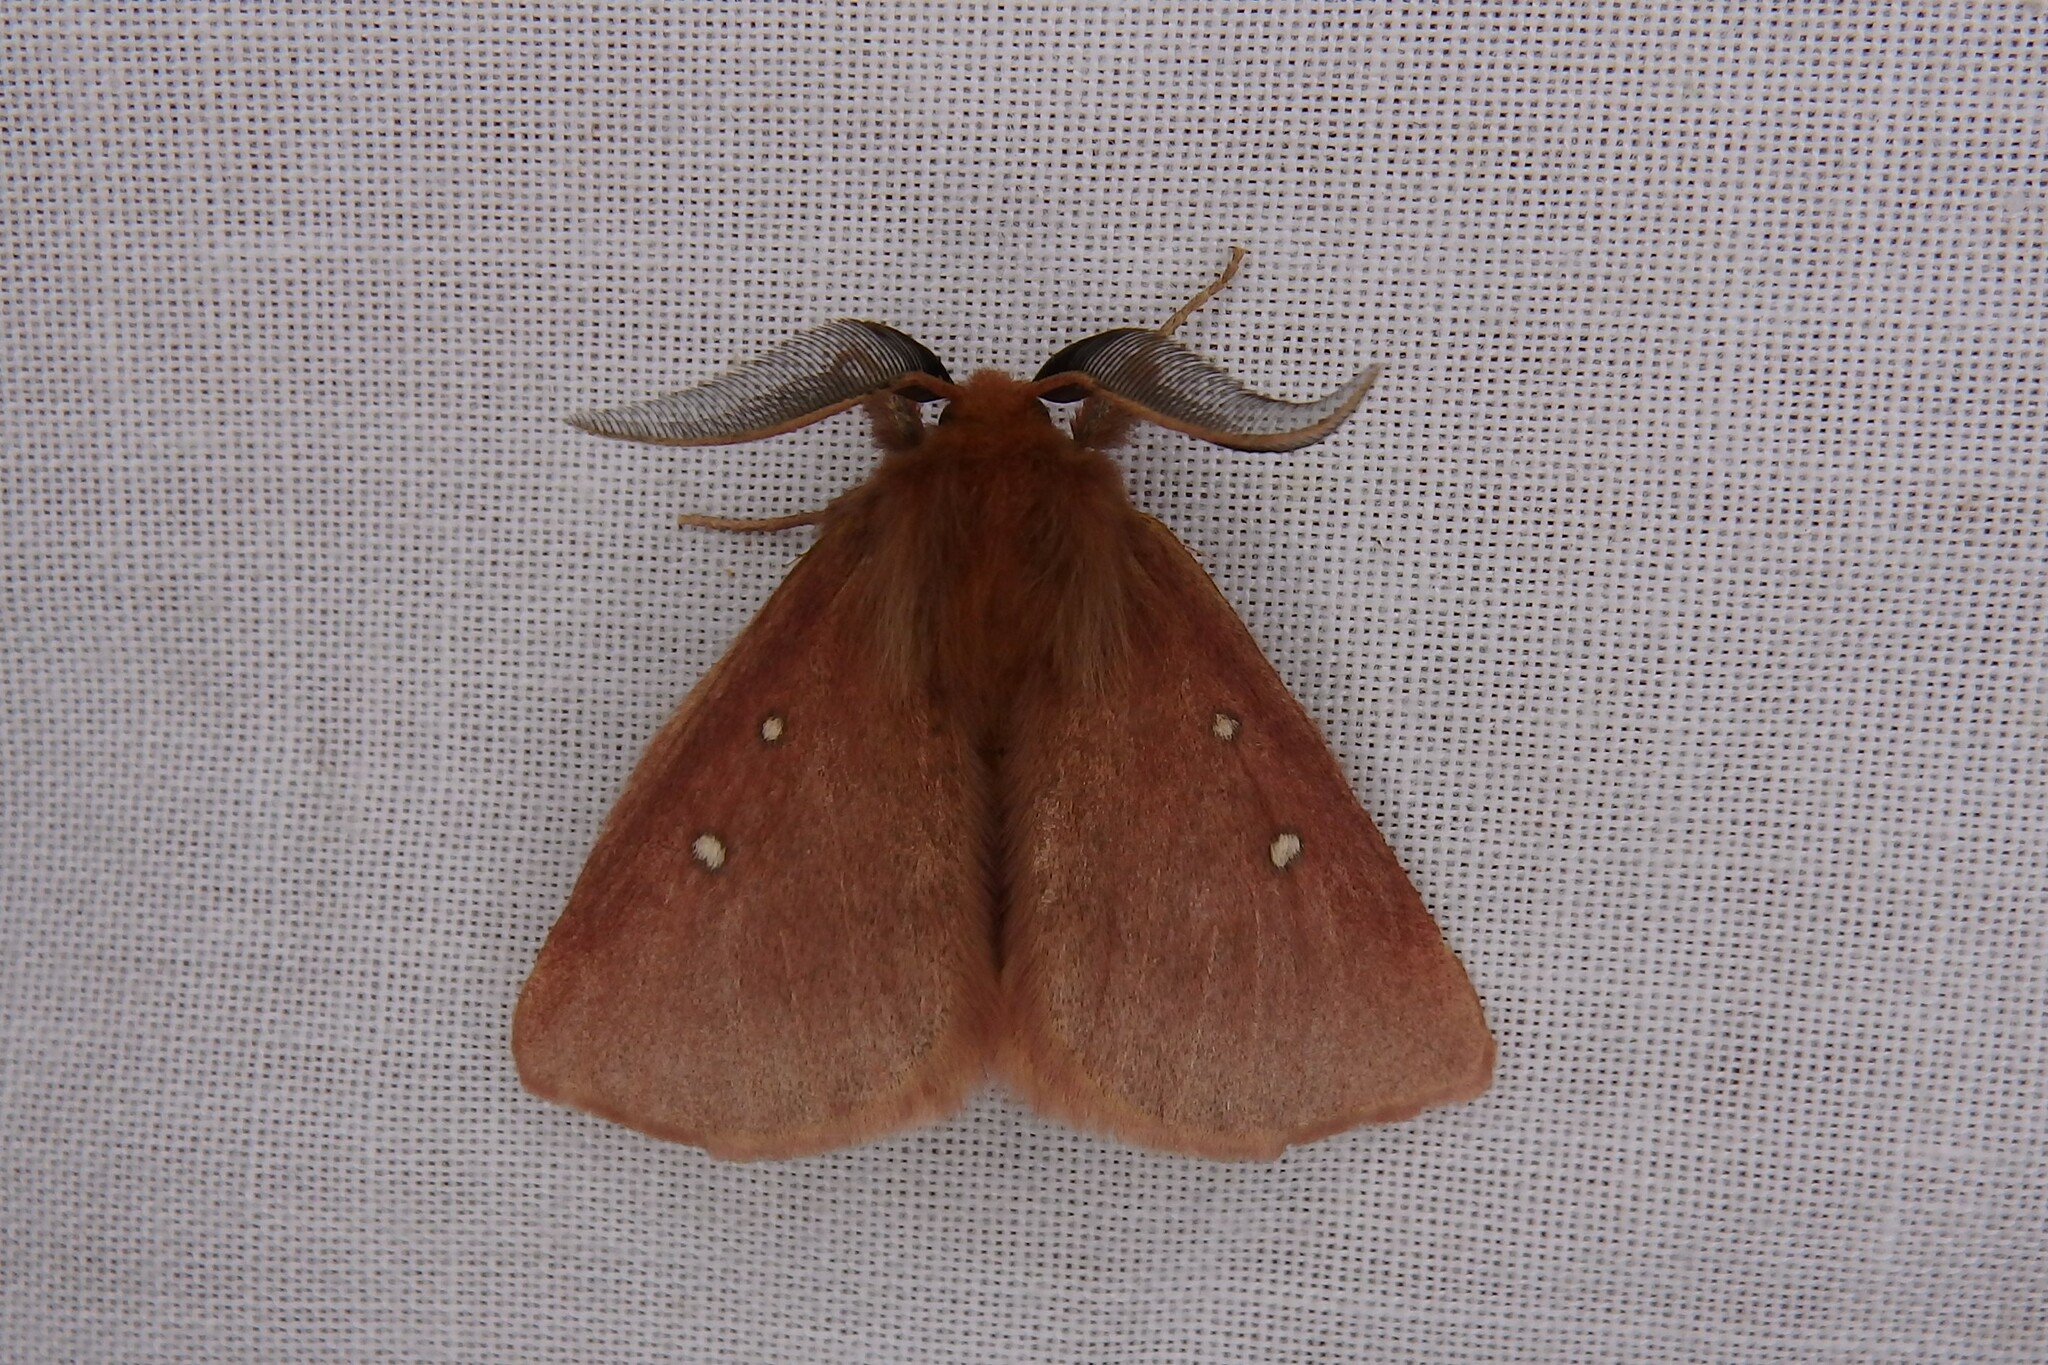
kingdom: Animalia
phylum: Arthropoda
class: Insecta
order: Lepidoptera
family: Anthelidae
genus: Anthela
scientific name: Anthela asterias
